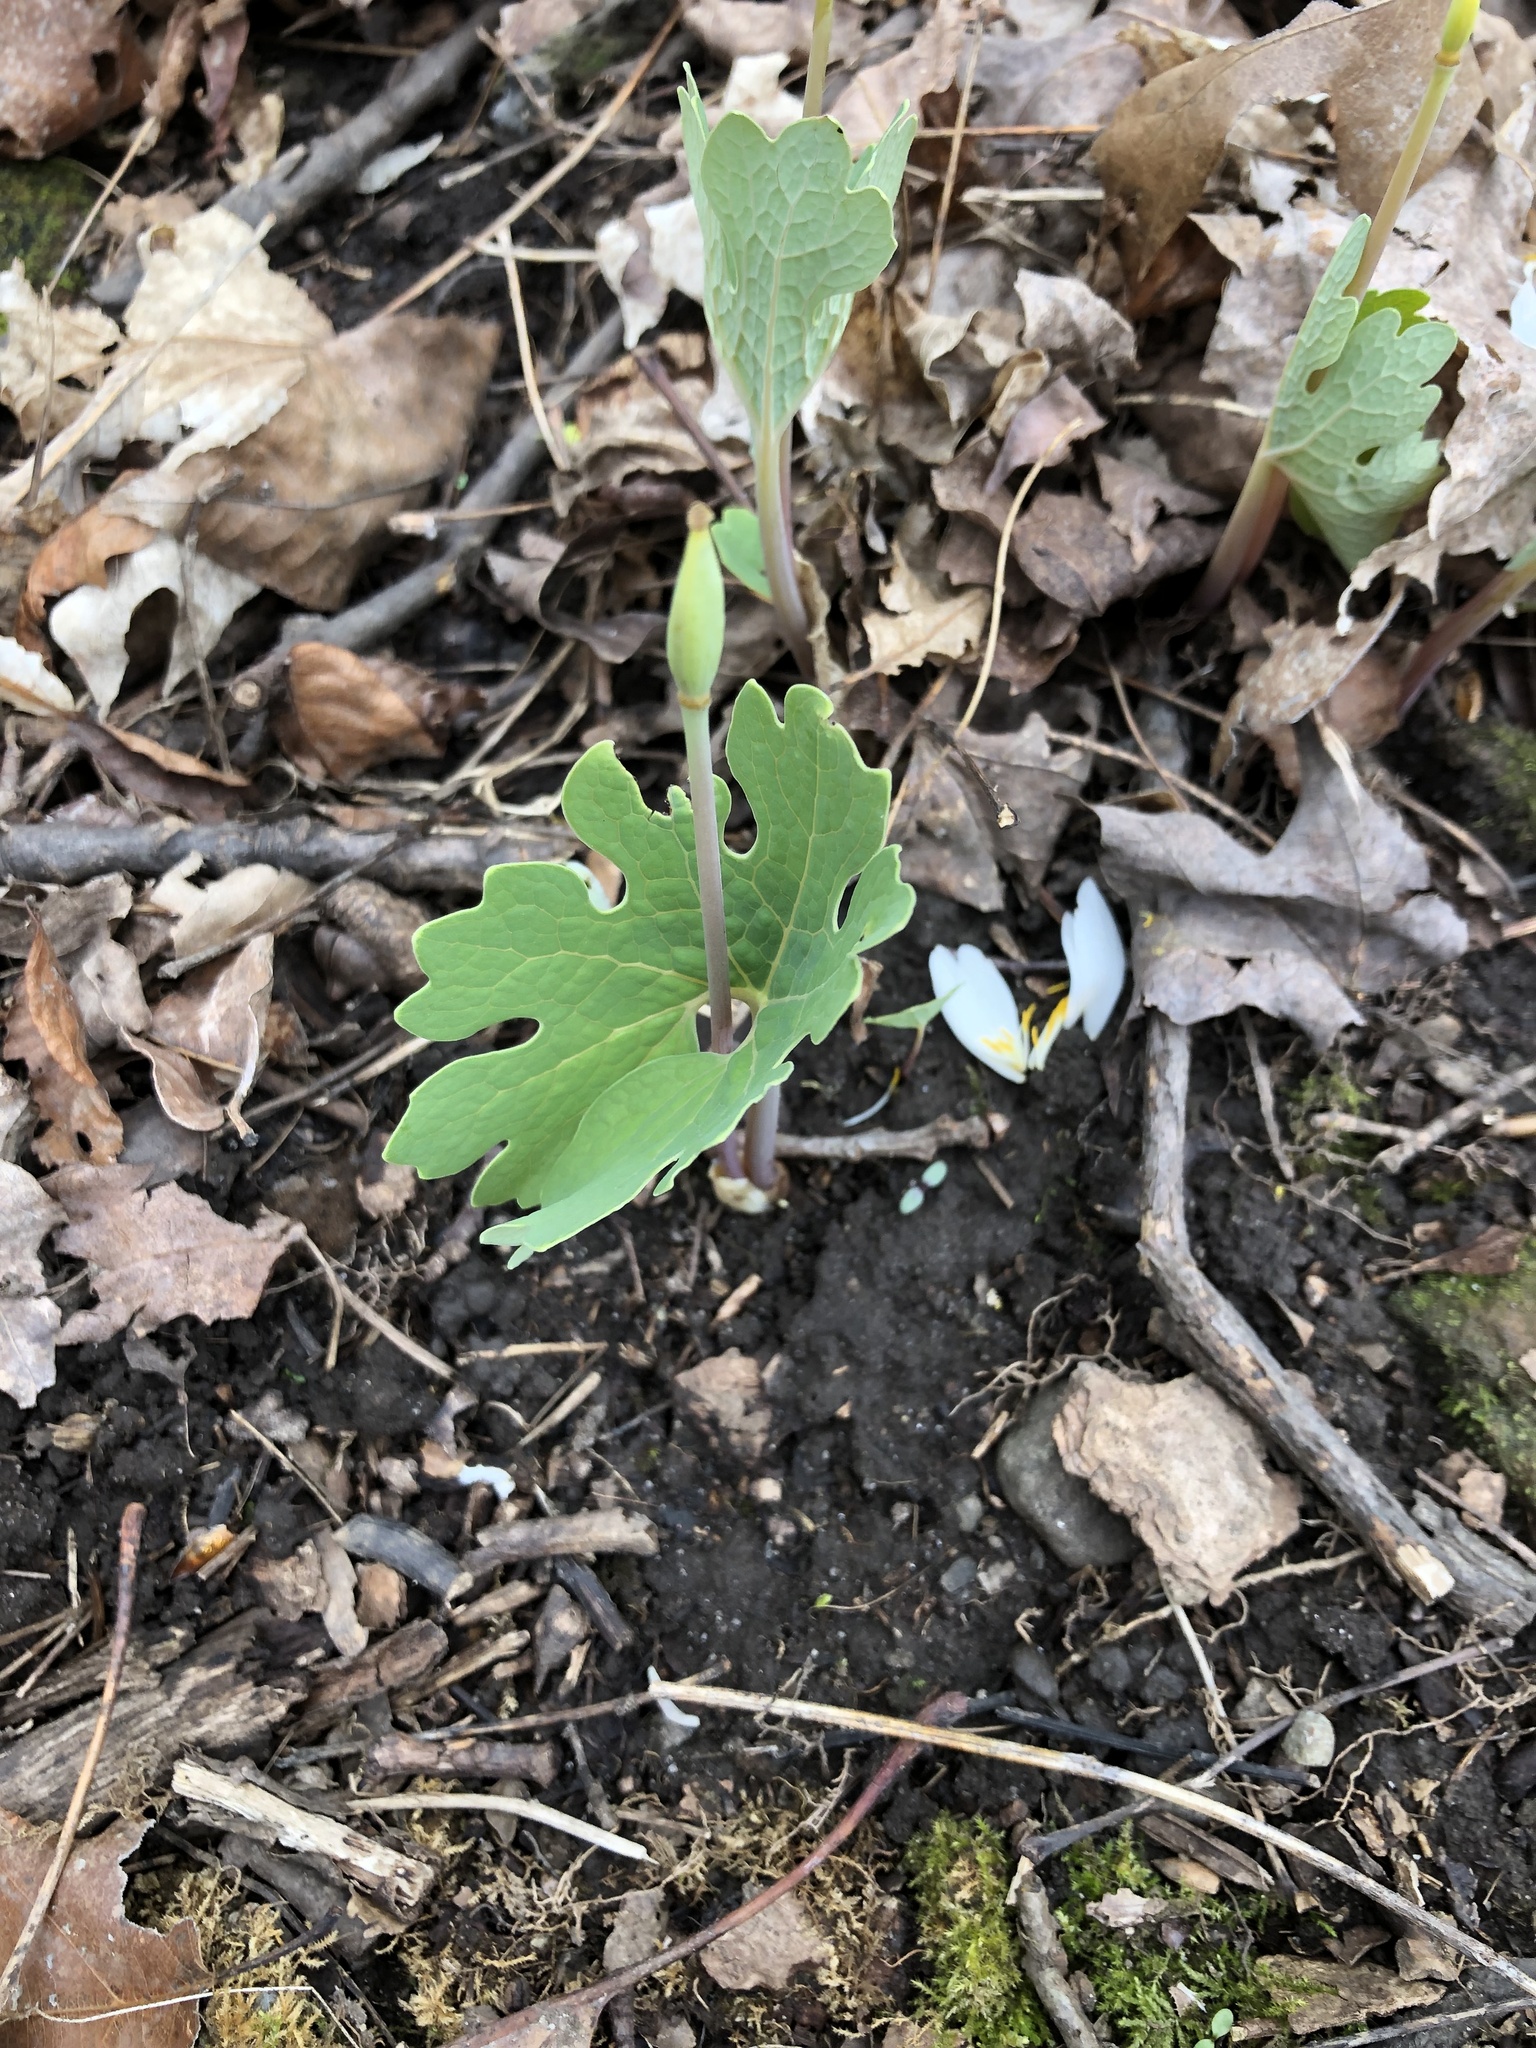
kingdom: Plantae
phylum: Tracheophyta
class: Magnoliopsida
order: Ranunculales
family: Papaveraceae
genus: Sanguinaria
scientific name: Sanguinaria canadensis
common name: Bloodroot
